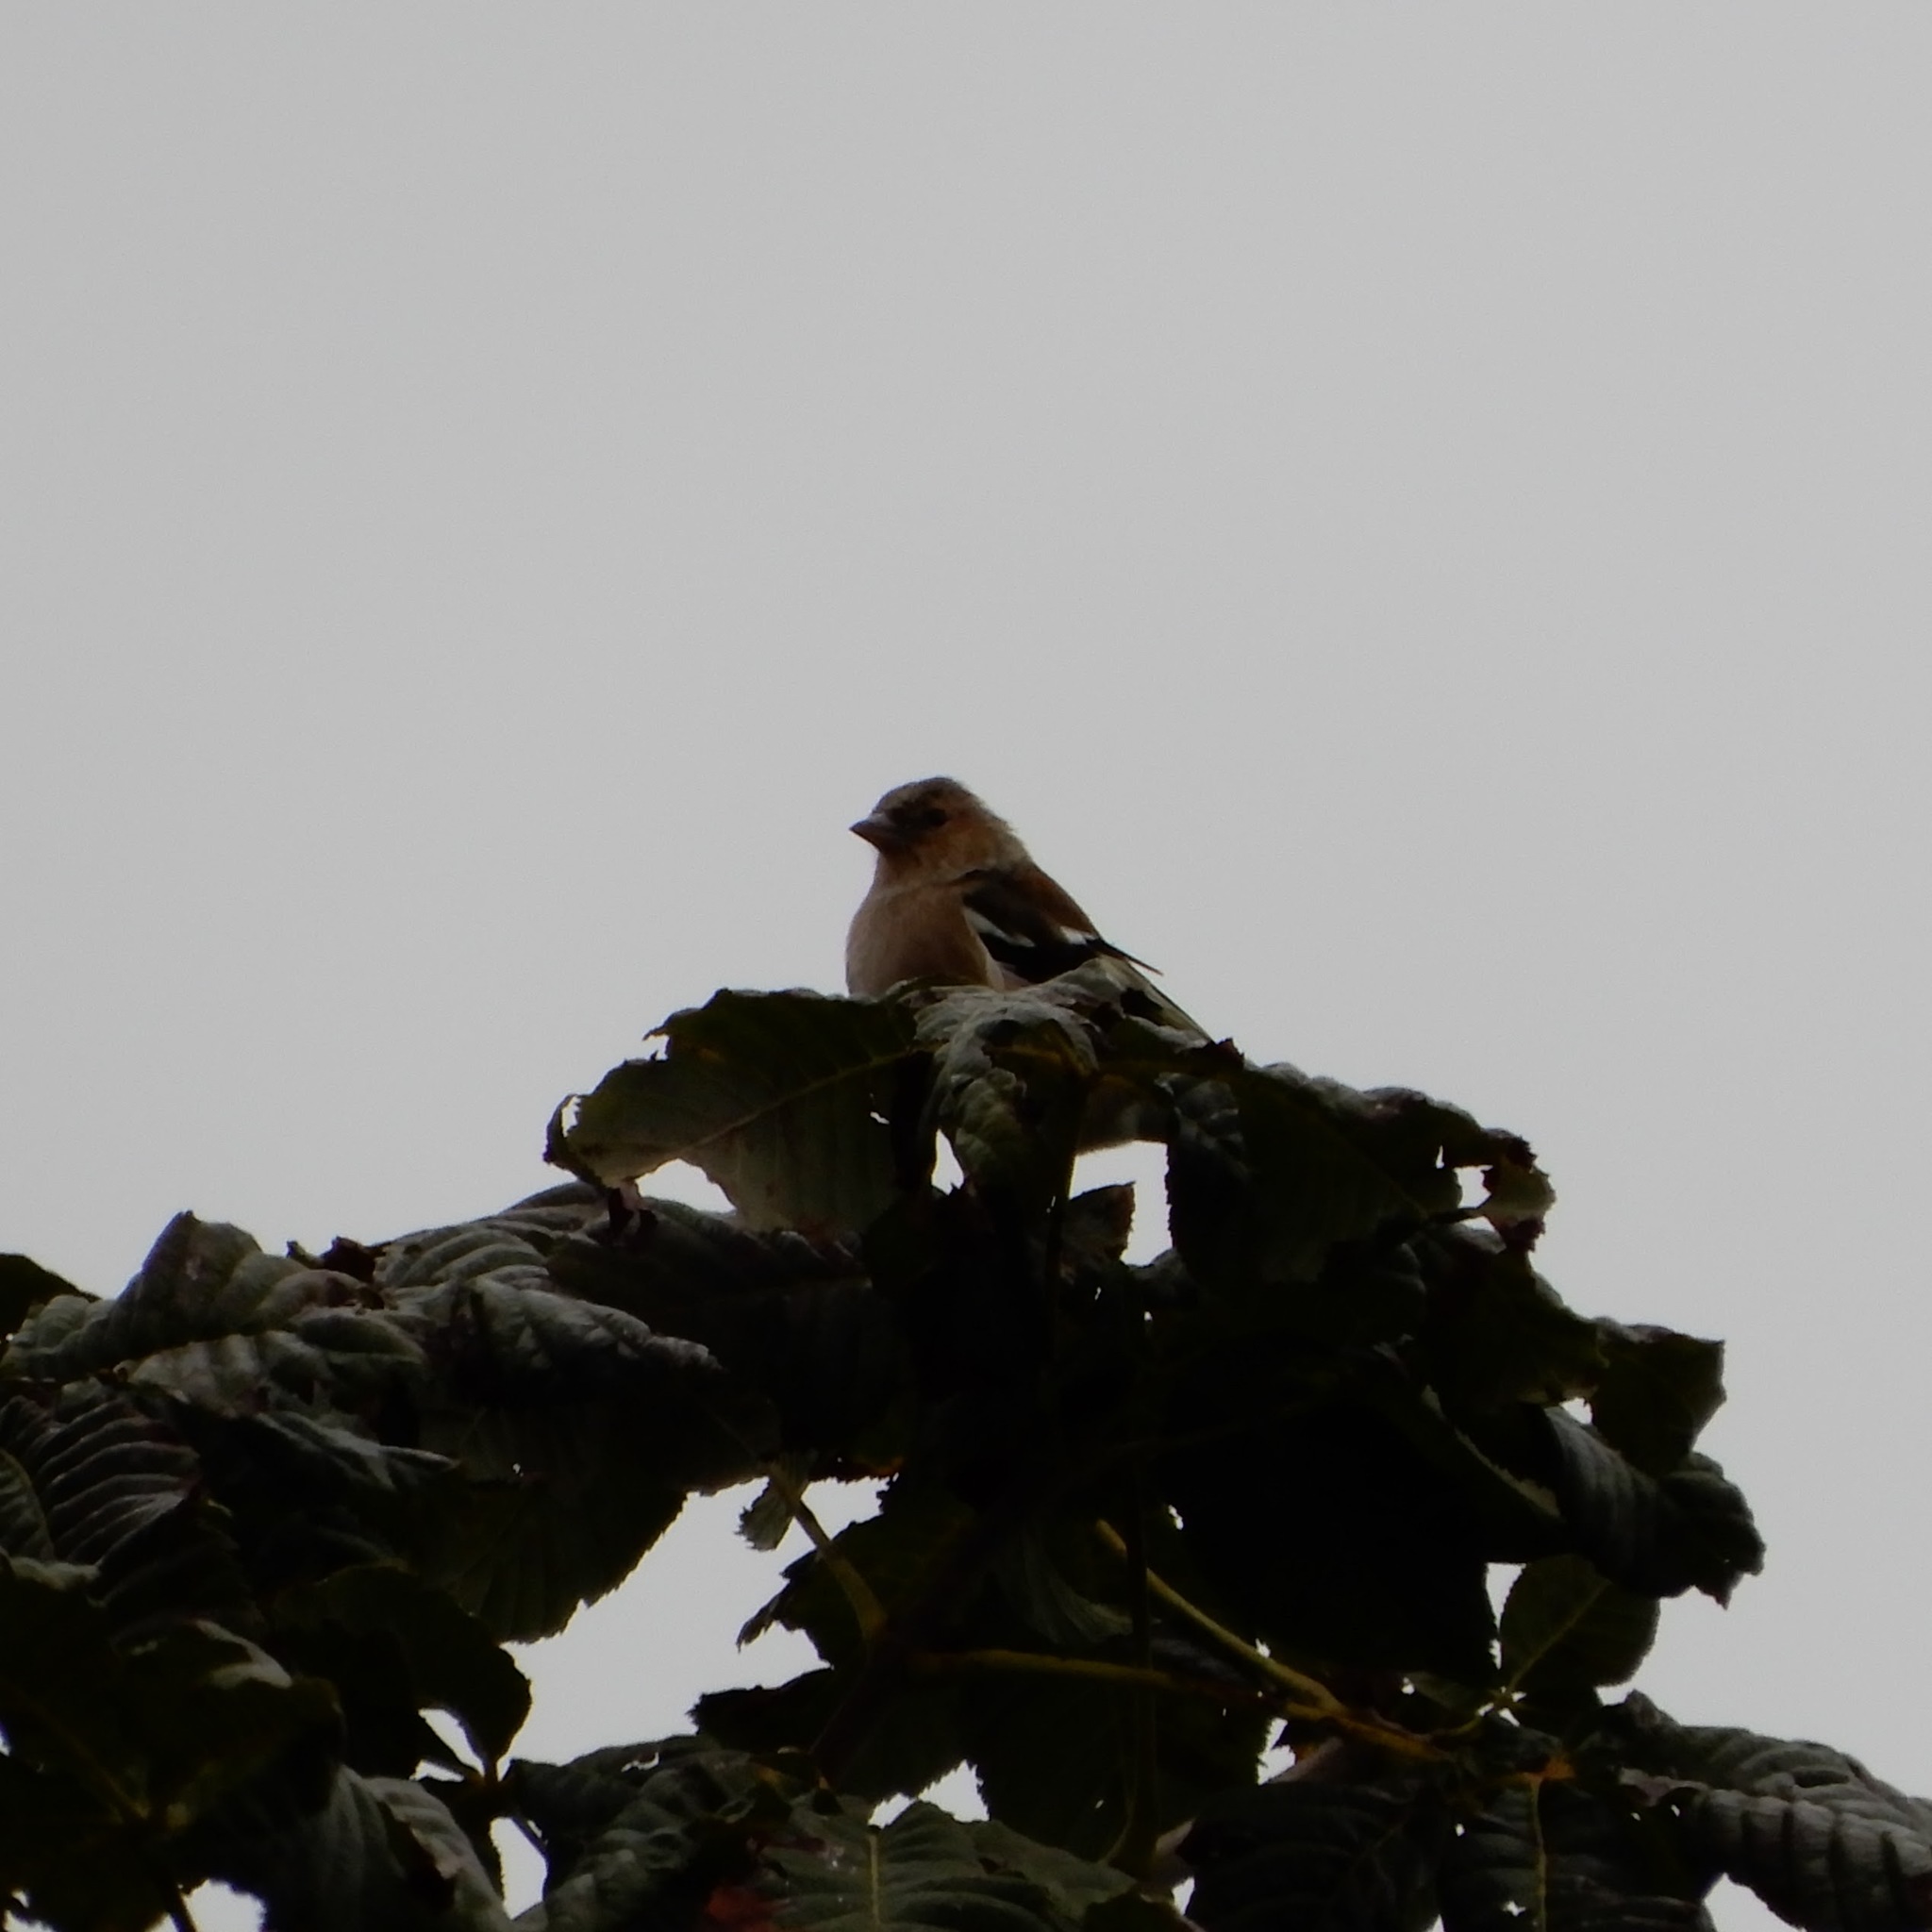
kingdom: Animalia
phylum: Chordata
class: Aves
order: Passeriformes
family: Fringillidae
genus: Fringilla
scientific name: Fringilla coelebs
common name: Common chaffinch
